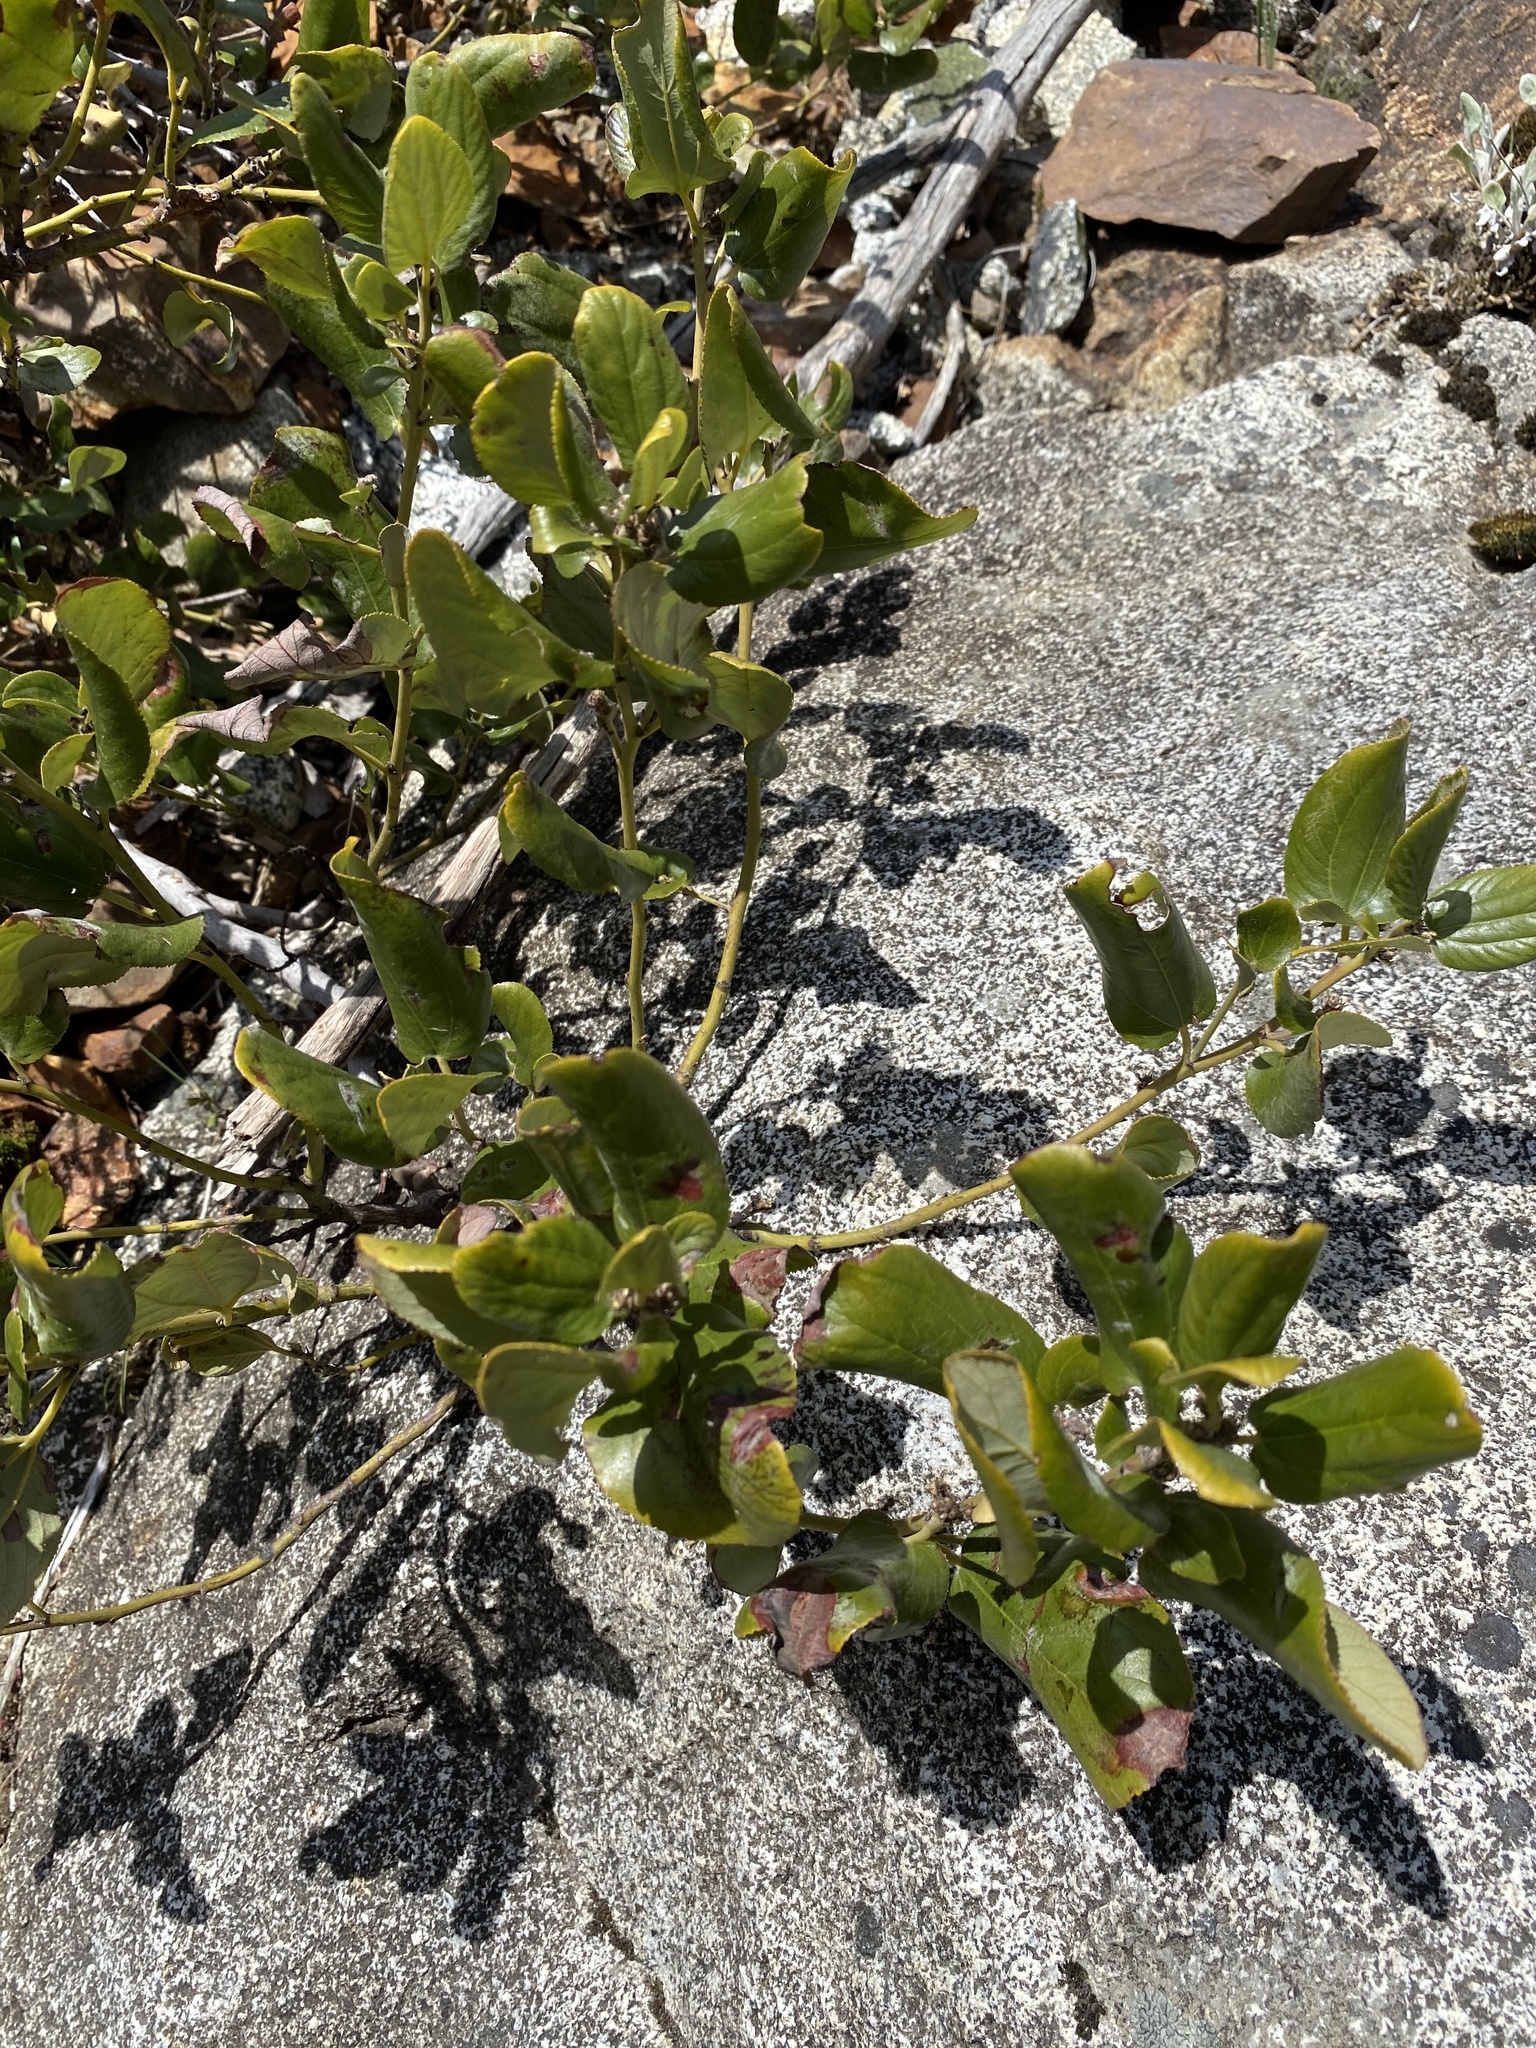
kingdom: Plantae
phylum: Tracheophyta
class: Magnoliopsida
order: Rosales
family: Rhamnaceae
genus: Ceanothus
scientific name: Ceanothus velutinus
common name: Snowbrush
